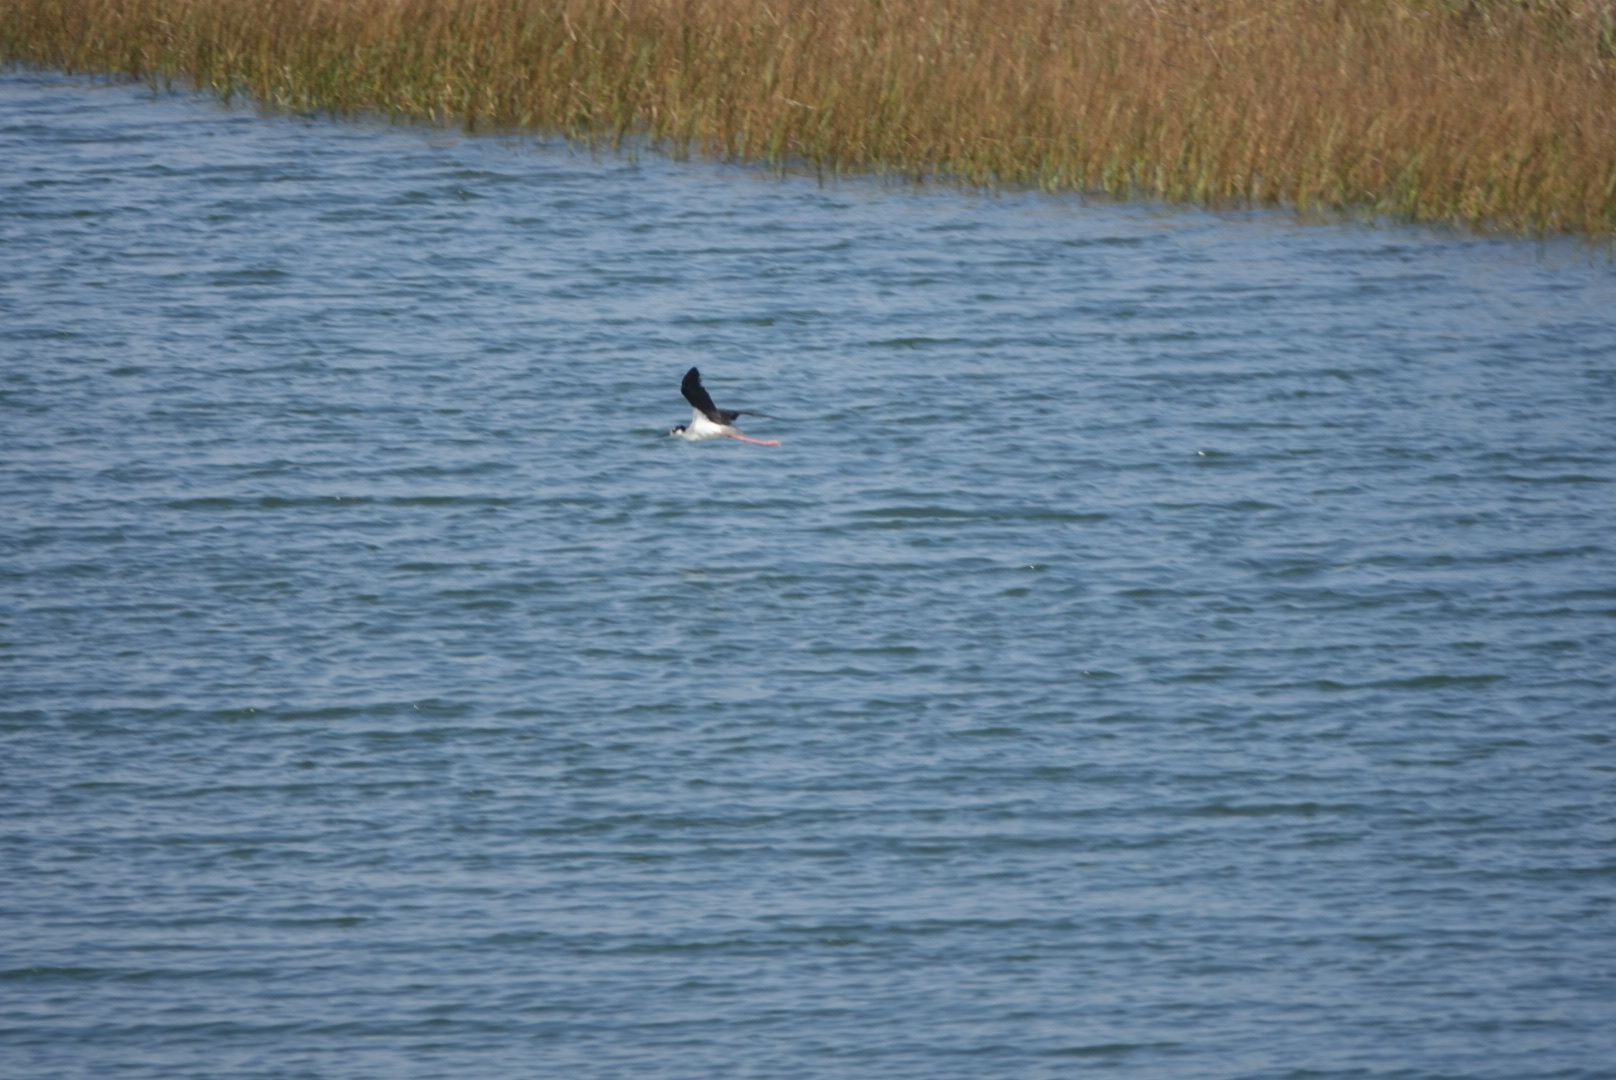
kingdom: Animalia
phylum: Chordata
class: Aves
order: Charadriiformes
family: Recurvirostridae
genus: Himantopus
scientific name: Himantopus mexicanus
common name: Black-necked stilt
